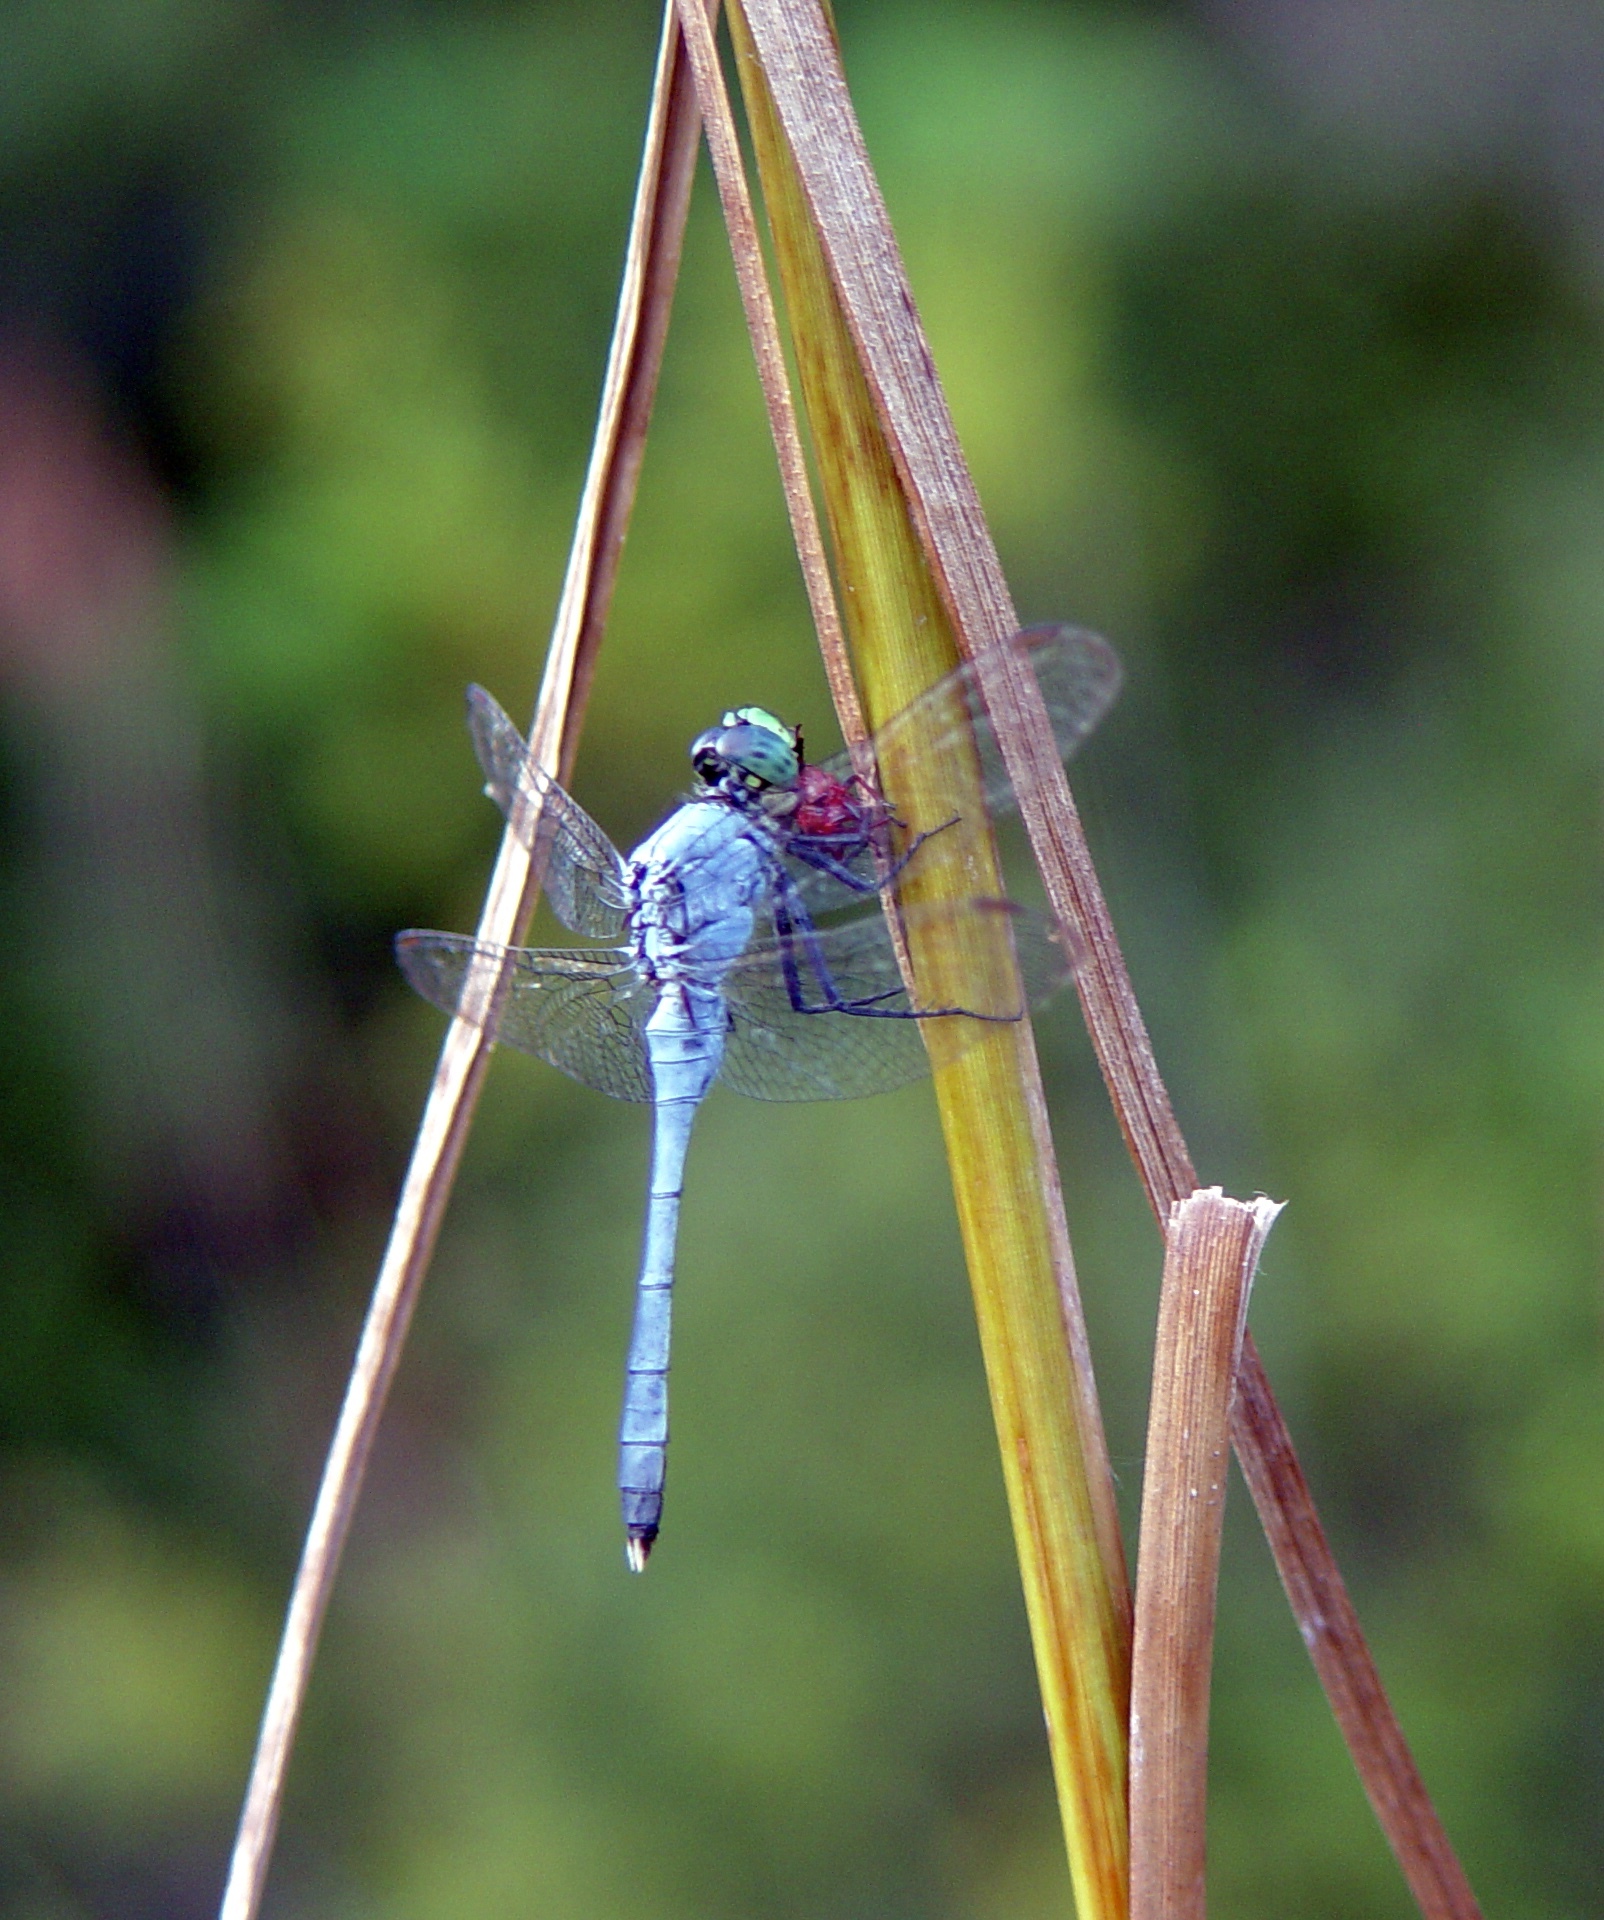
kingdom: Animalia
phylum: Arthropoda
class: Insecta
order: Odonata
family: Libellulidae
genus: Erythemis
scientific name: Erythemis simplicicollis
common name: Eastern pondhawk
